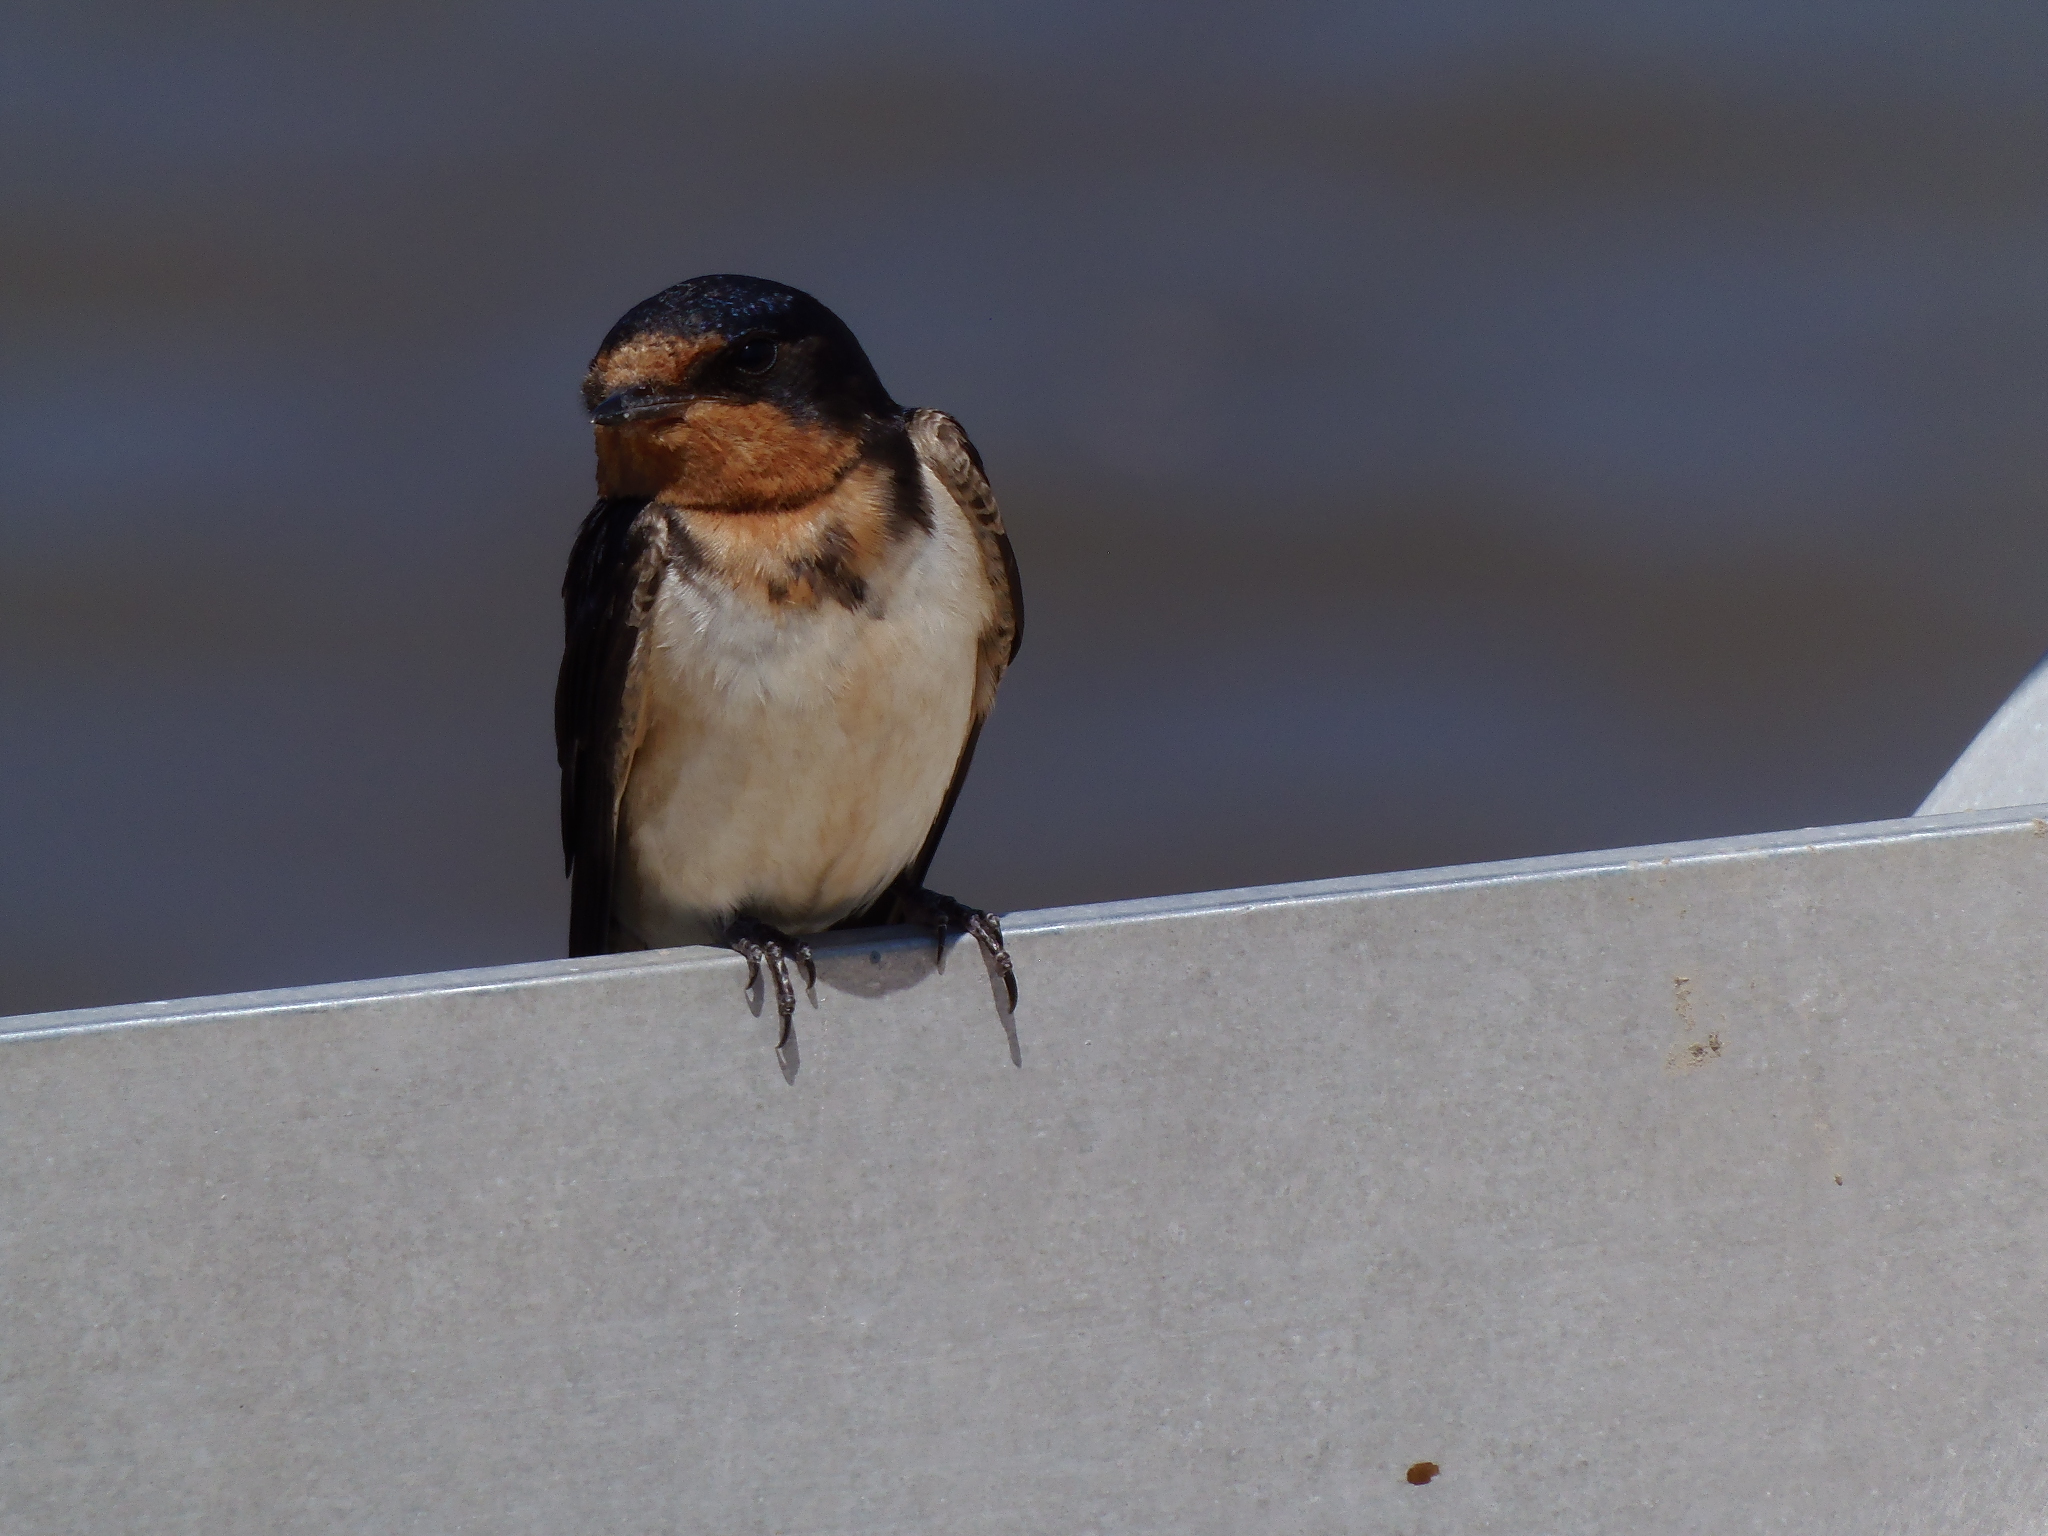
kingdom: Animalia
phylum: Chordata
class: Aves
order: Passeriformes
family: Hirundinidae
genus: Hirundo
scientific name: Hirundo rustica
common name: Barn swallow
